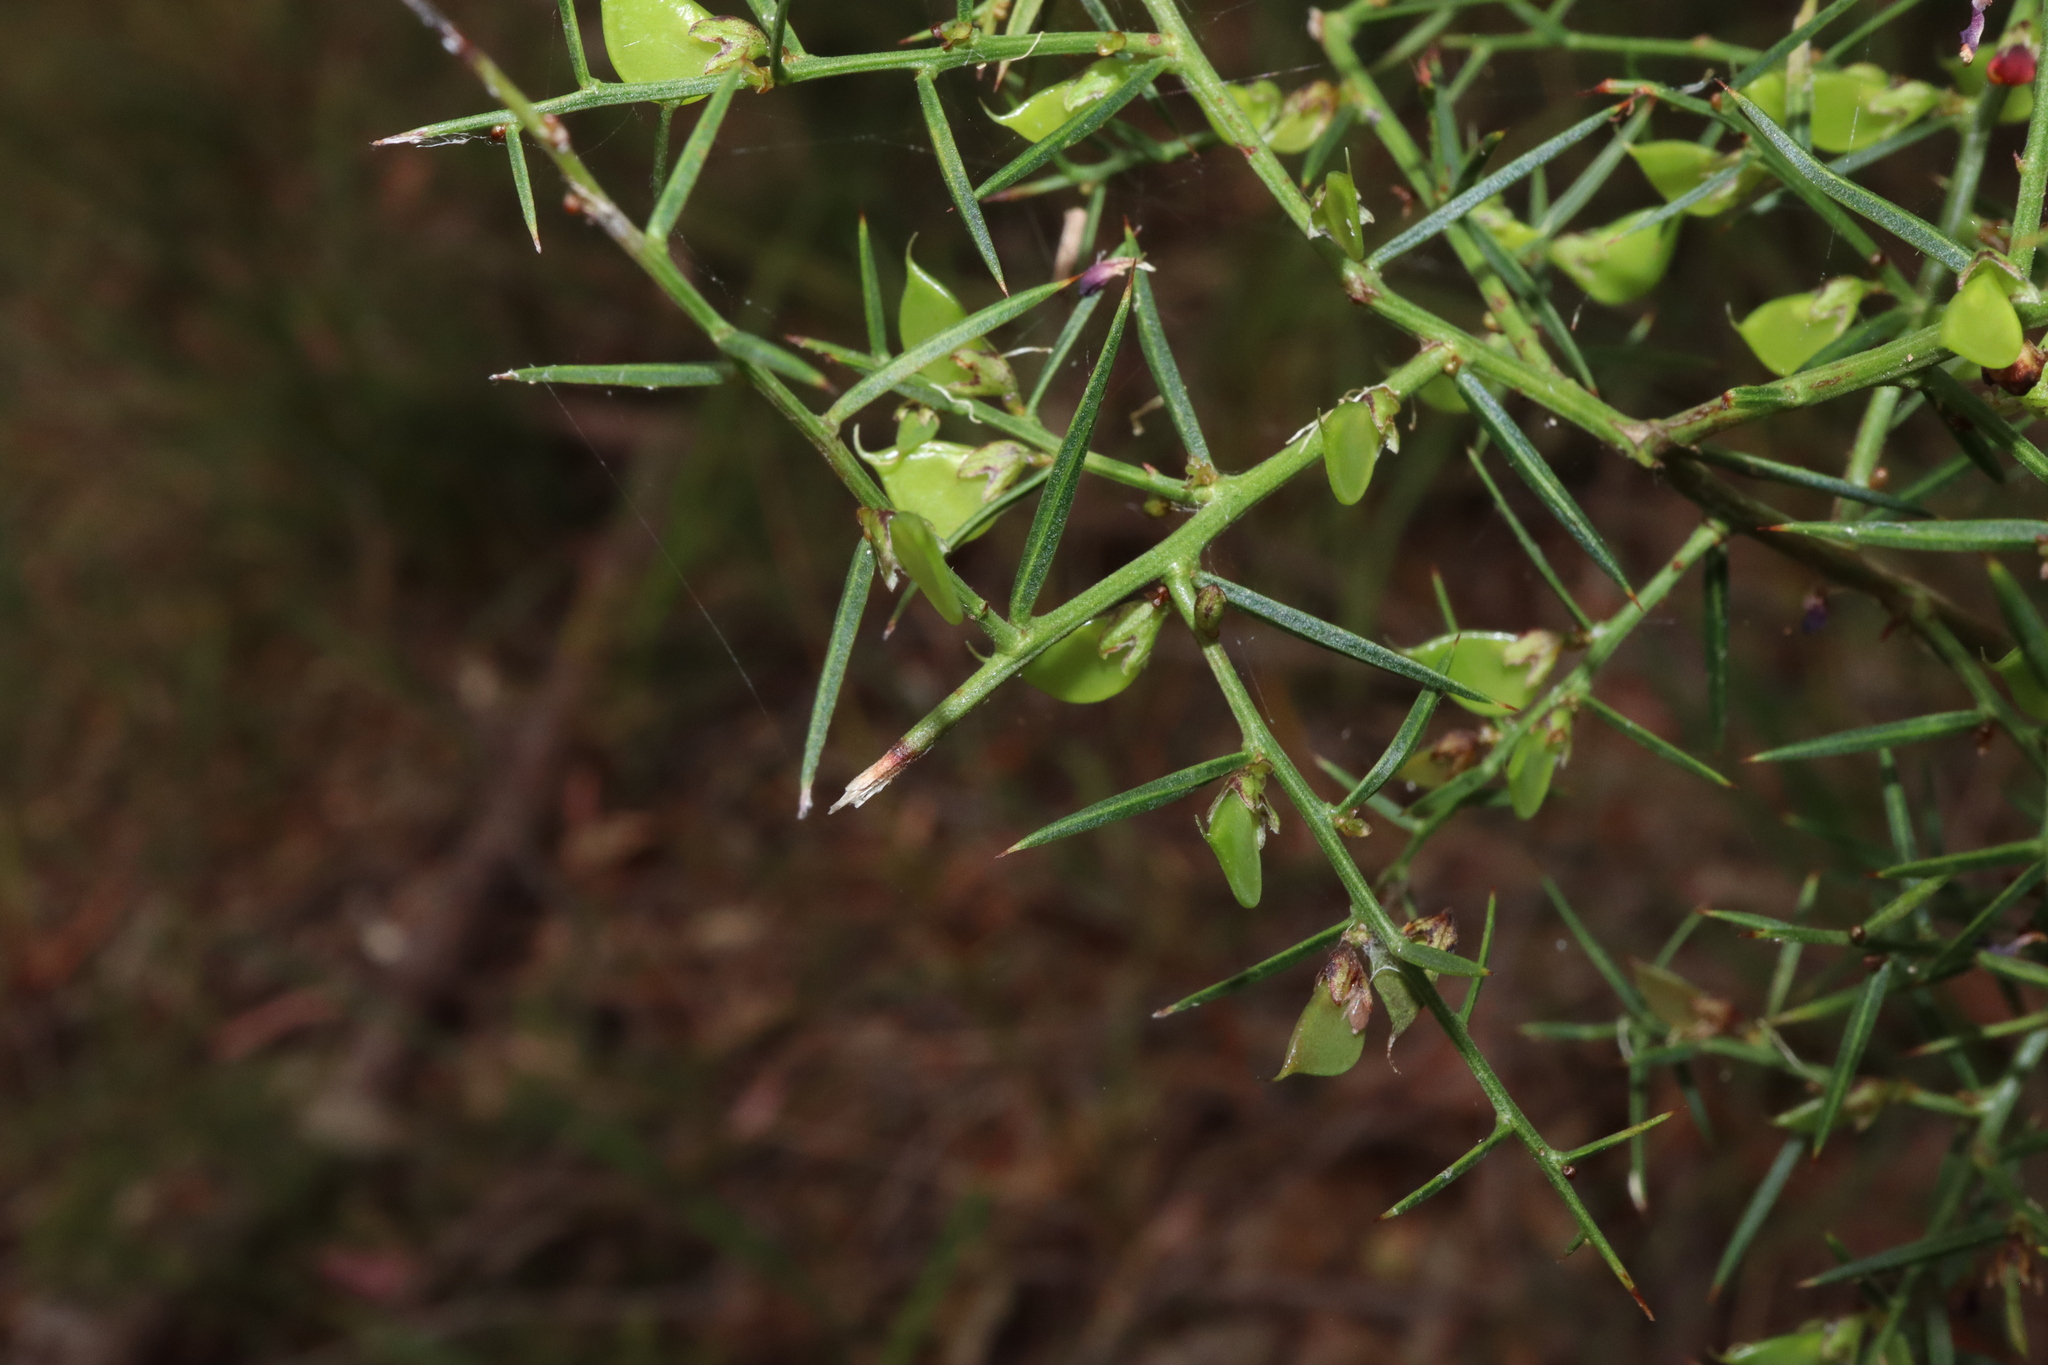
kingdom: Plantae
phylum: Tracheophyta
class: Magnoliopsida
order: Fabales
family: Fabaceae
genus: Daviesia
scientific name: Daviesia ulicifolia
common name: Gorse bitter-pea
